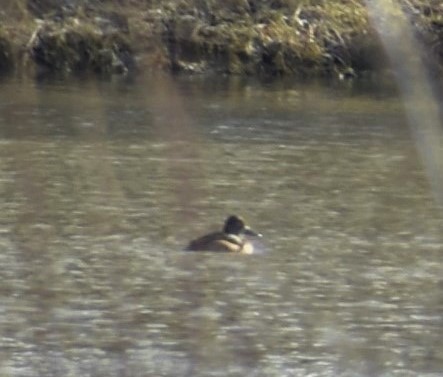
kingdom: Animalia
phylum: Chordata
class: Aves
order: Anseriformes
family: Anatidae
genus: Aythya
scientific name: Aythya collaris
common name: Ring-necked duck
